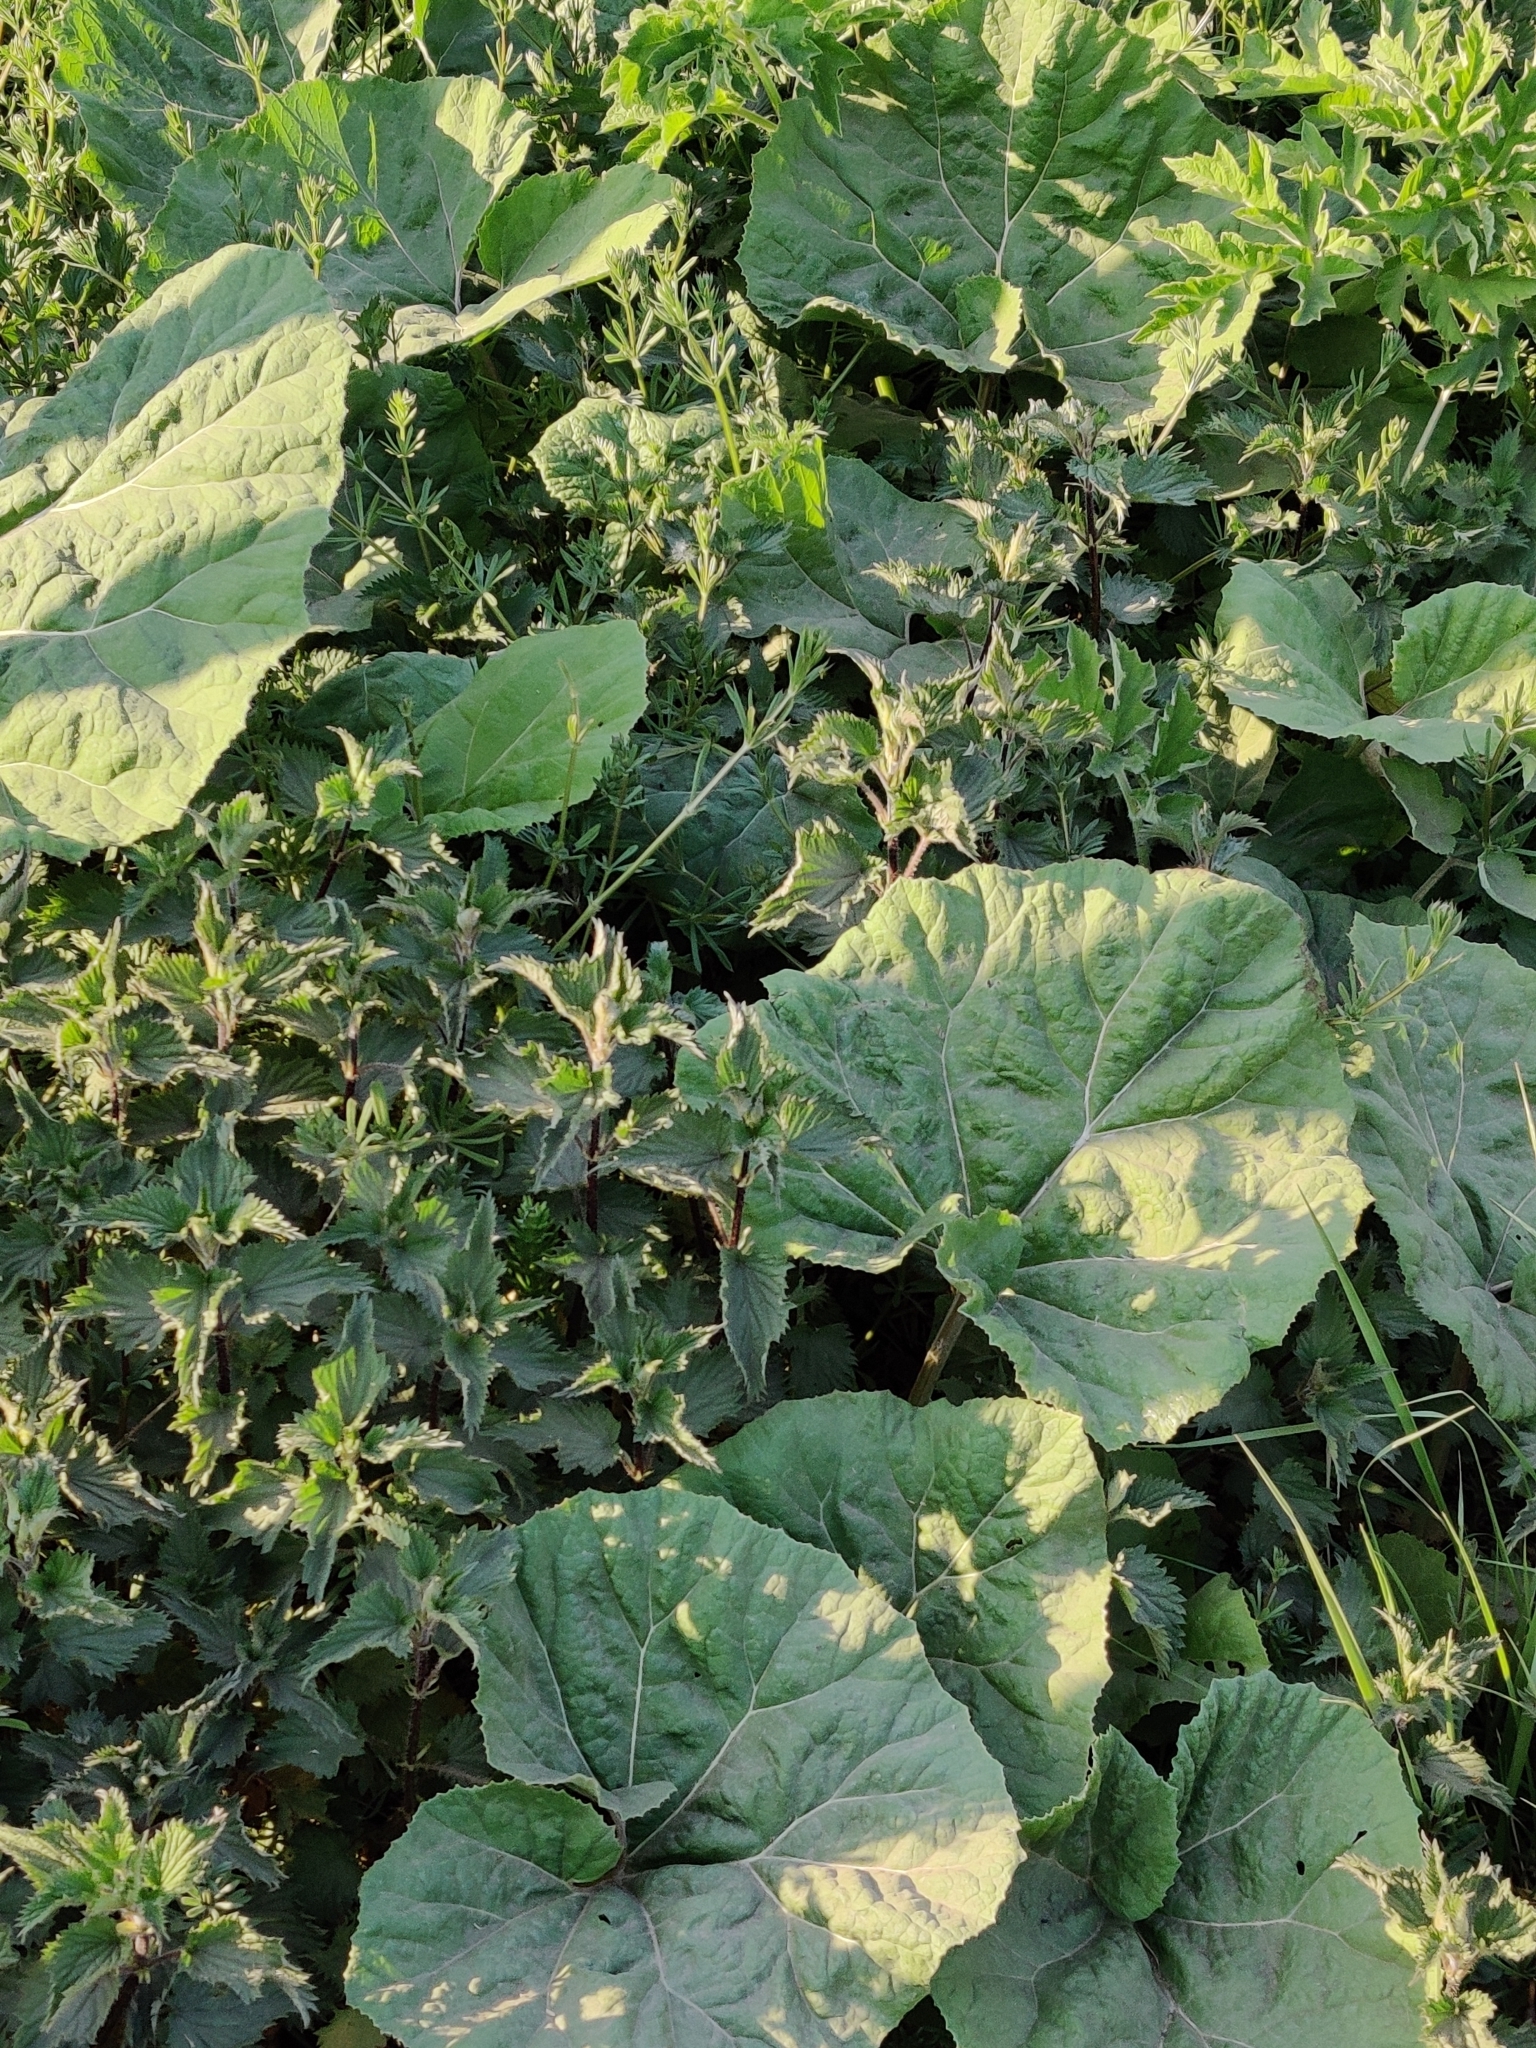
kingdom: Plantae
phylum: Tracheophyta
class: Magnoliopsida
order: Asterales
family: Asteraceae
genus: Petasites
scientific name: Petasites hybridus
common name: Butterbur
